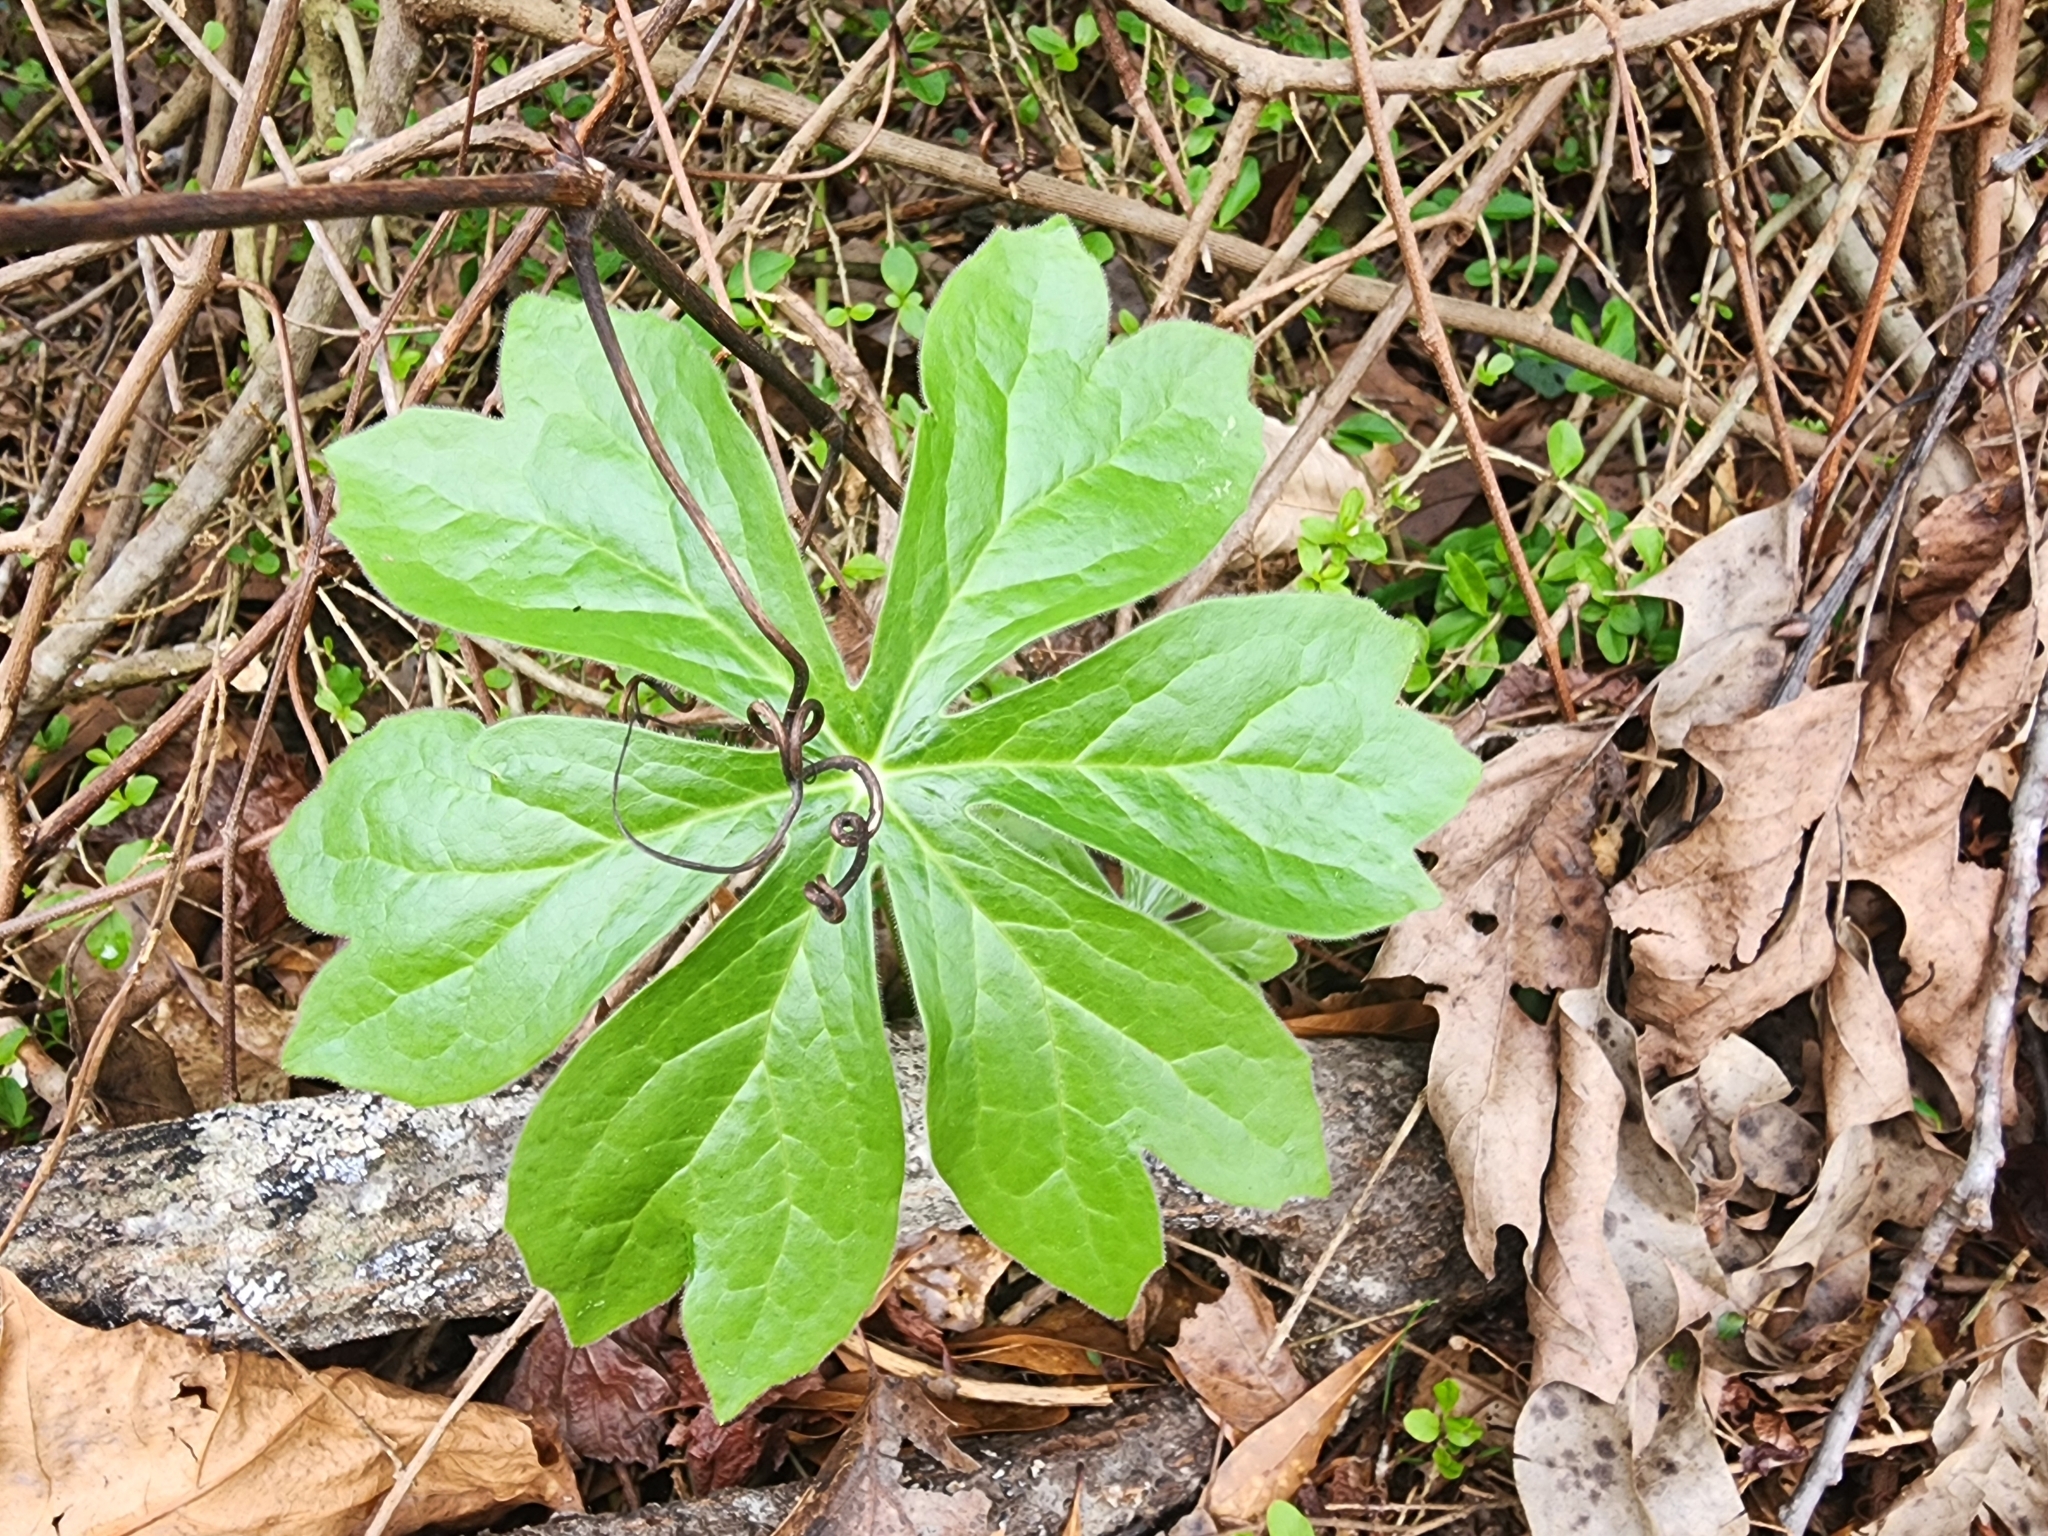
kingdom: Plantae
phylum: Tracheophyta
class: Magnoliopsida
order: Ranunculales
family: Berberidaceae
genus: Podophyllum
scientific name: Podophyllum peltatum
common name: Wild mandrake
